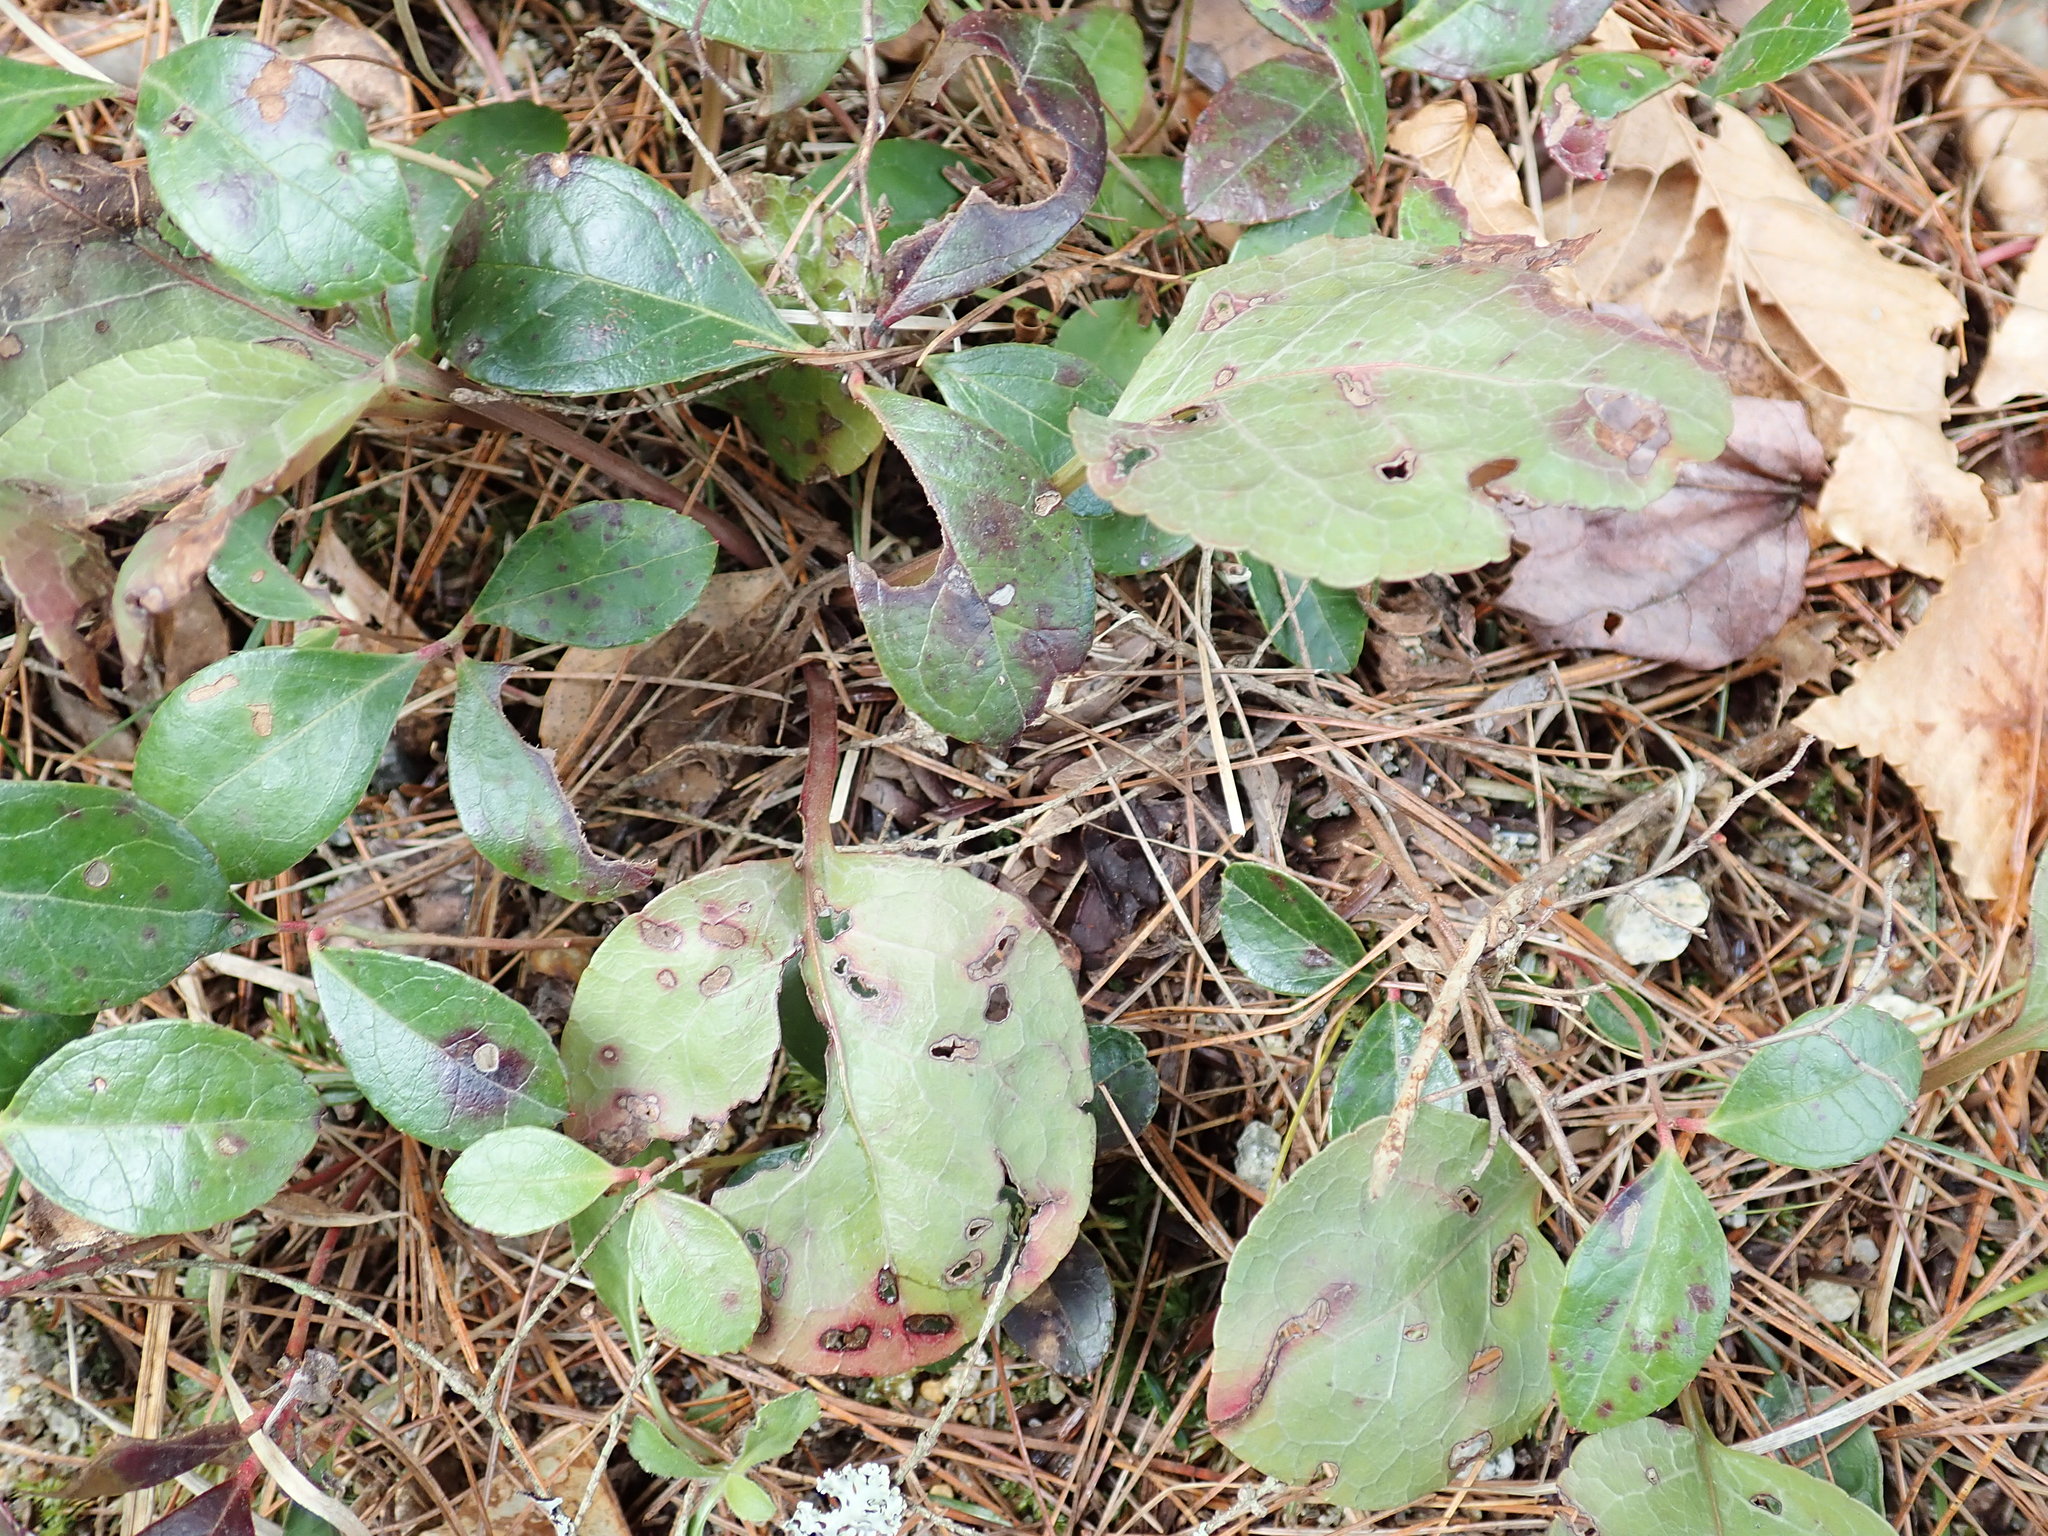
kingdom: Plantae
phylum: Tracheophyta
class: Magnoliopsida
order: Ericales
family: Ericaceae
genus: Pyrola
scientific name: Pyrola elliptica
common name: Shinleaf
